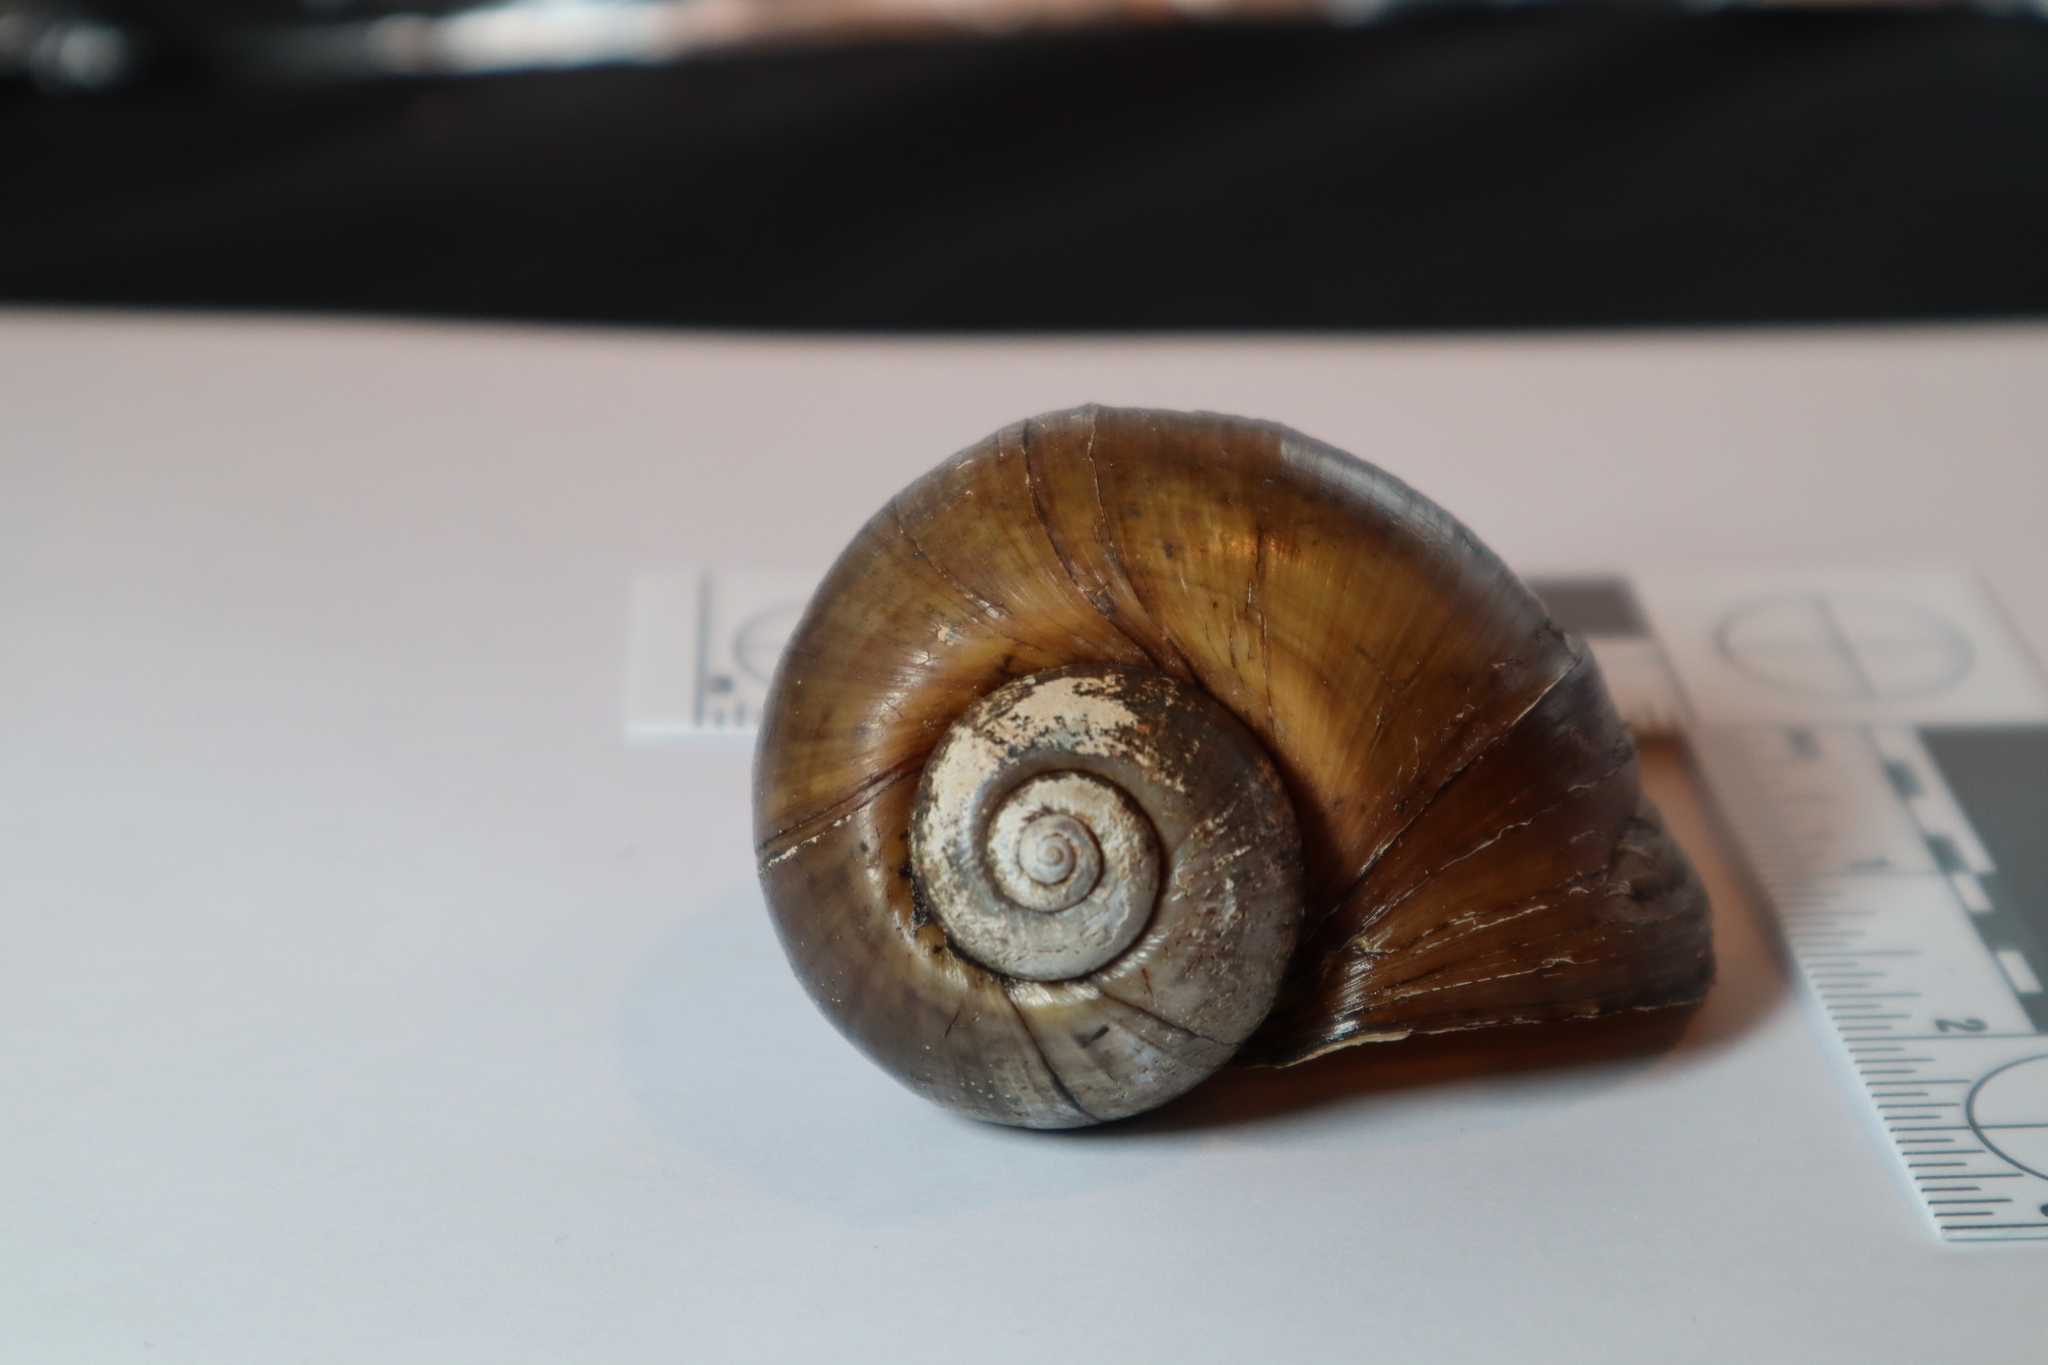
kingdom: Animalia
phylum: Mollusca
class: Gastropoda
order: Architaenioglossa
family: Ampullariidae
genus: Pomacea
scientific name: Pomacea maculata
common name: Giant applesnail
